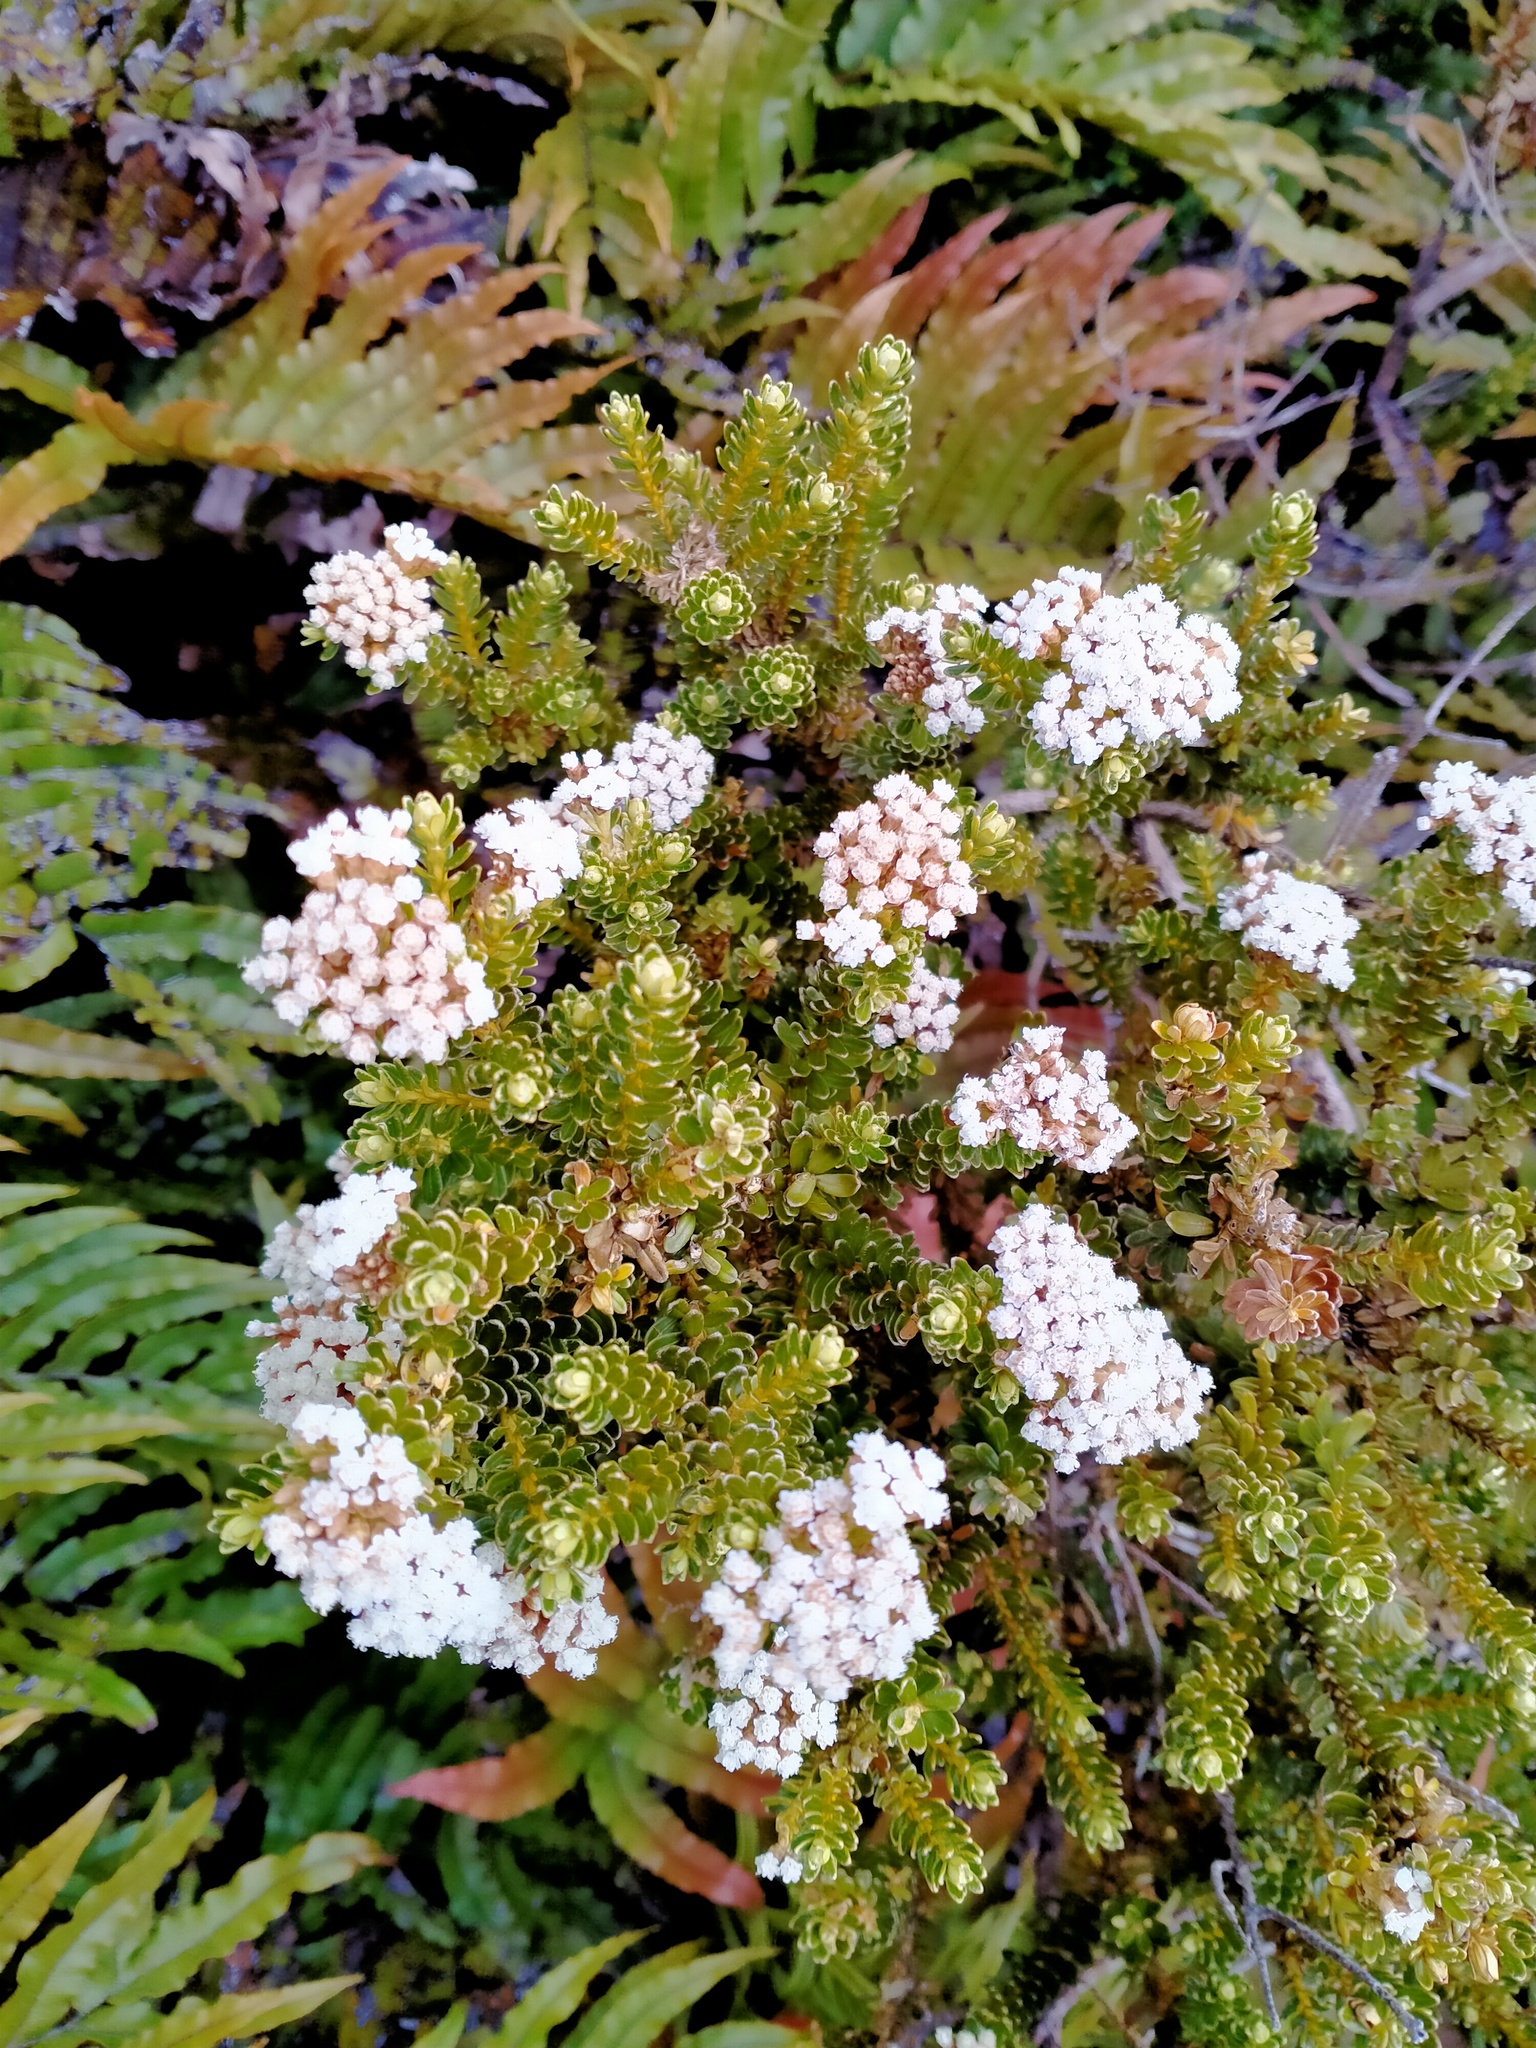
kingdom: Plantae
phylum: Tracheophyta
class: Magnoliopsida
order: Asterales
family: Asteraceae
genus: Ozothamnus
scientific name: Ozothamnus leptophyllus
